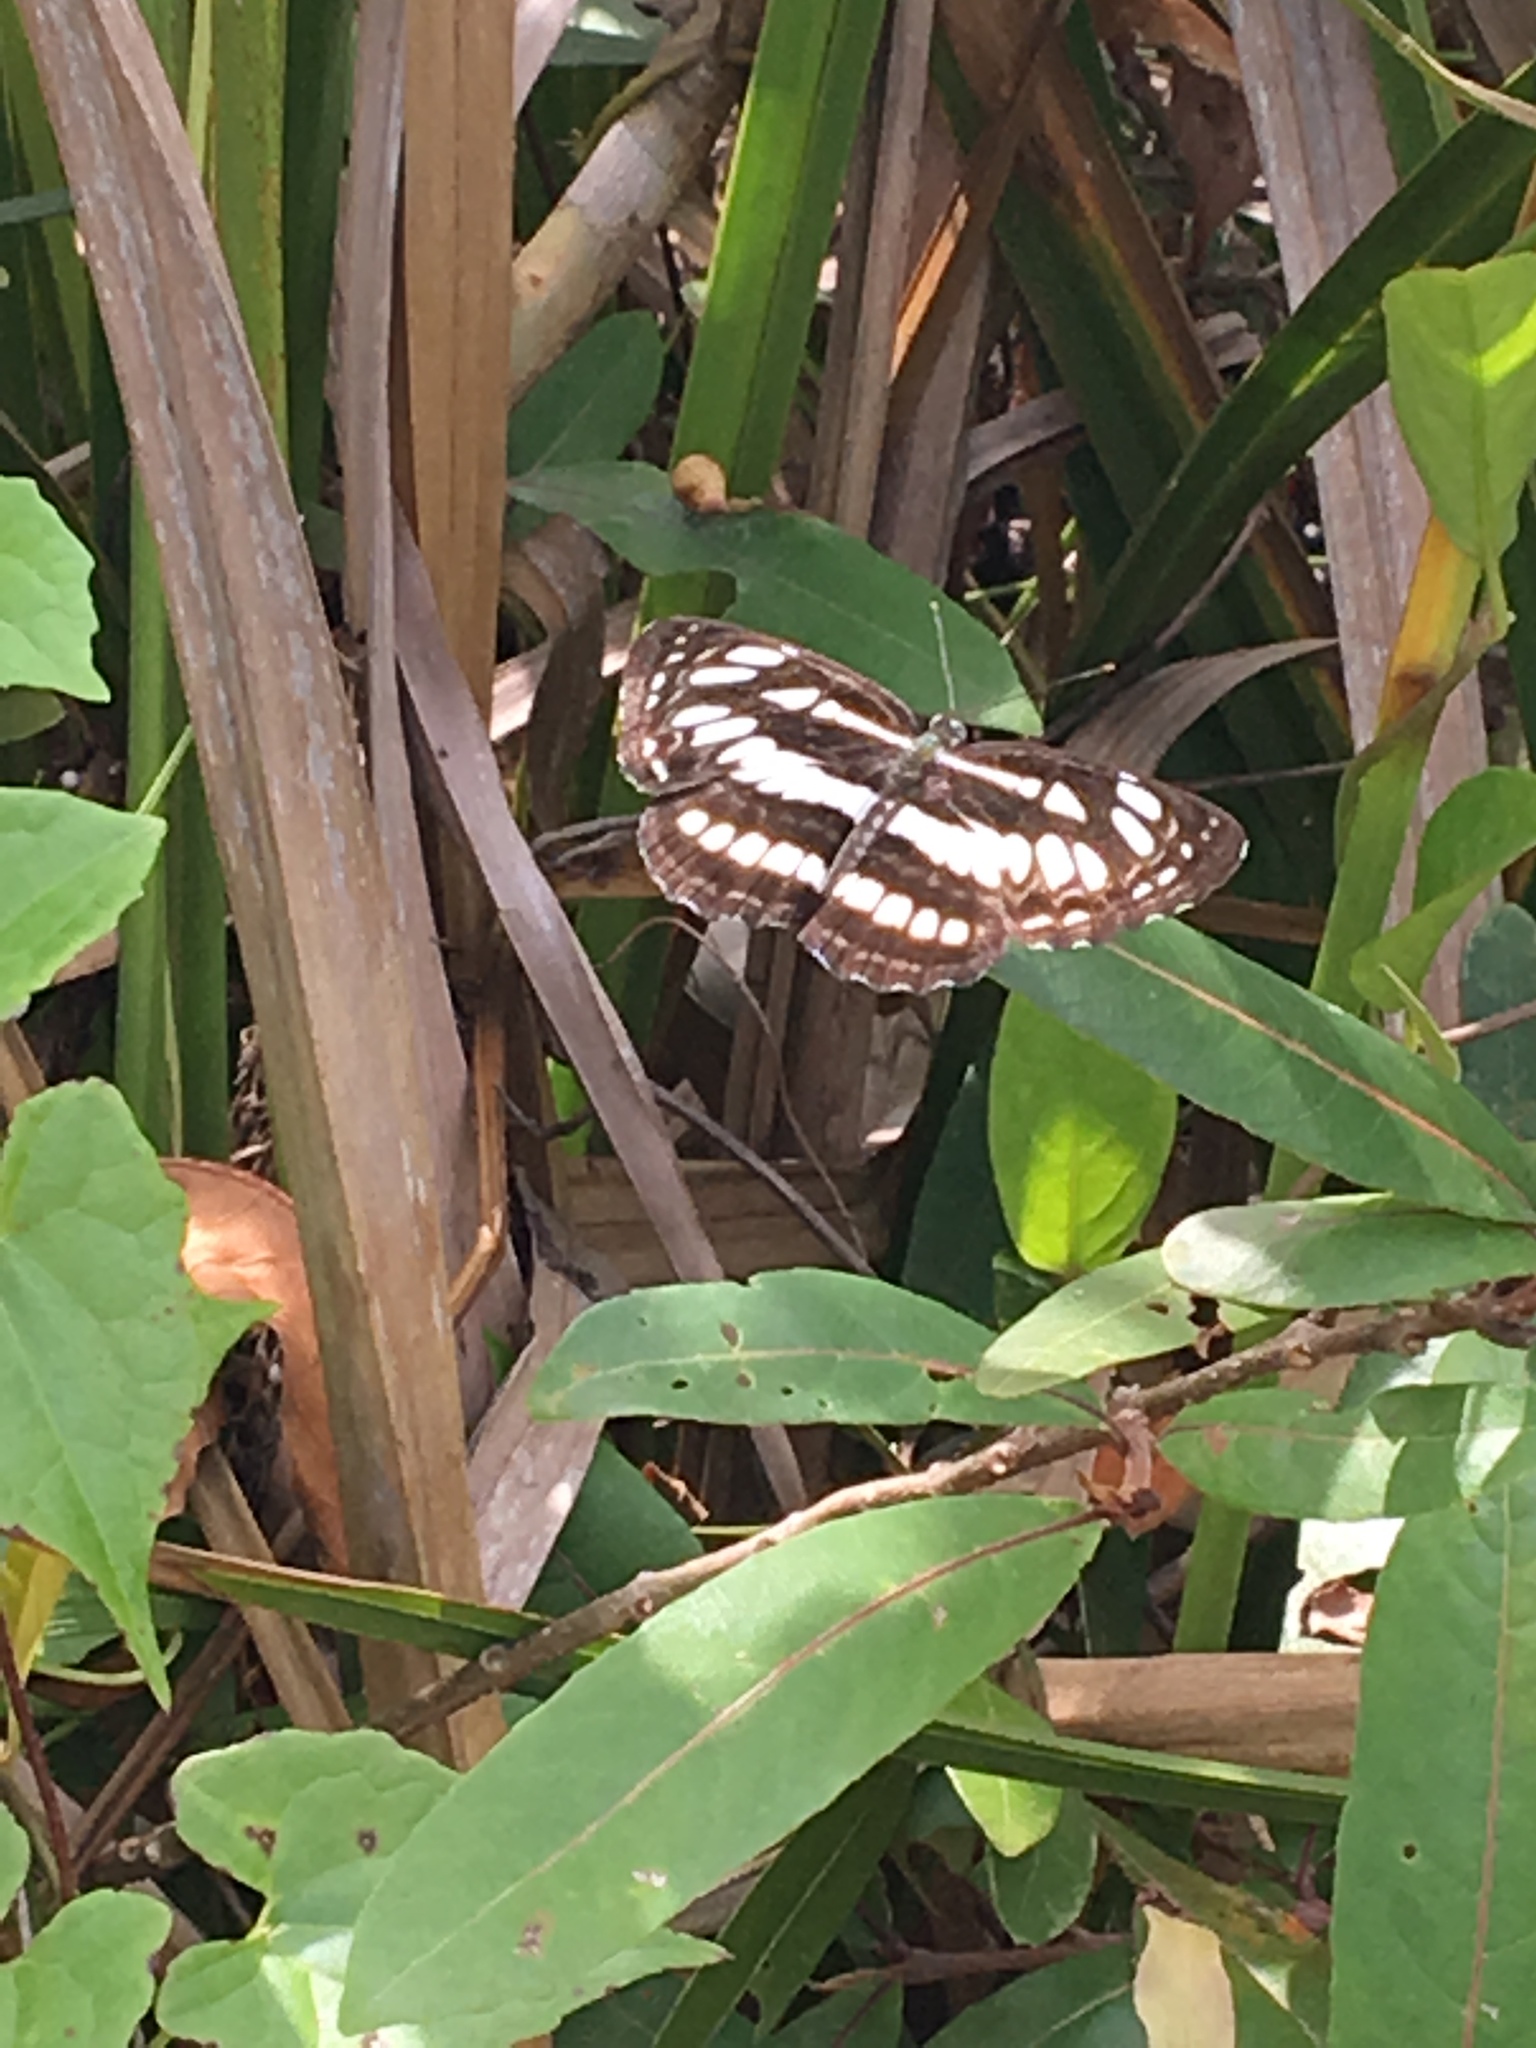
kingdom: Animalia
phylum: Arthropoda
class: Insecta
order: Lepidoptera
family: Nymphalidae
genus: Neptis
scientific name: Neptis hylas
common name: Common sailer
